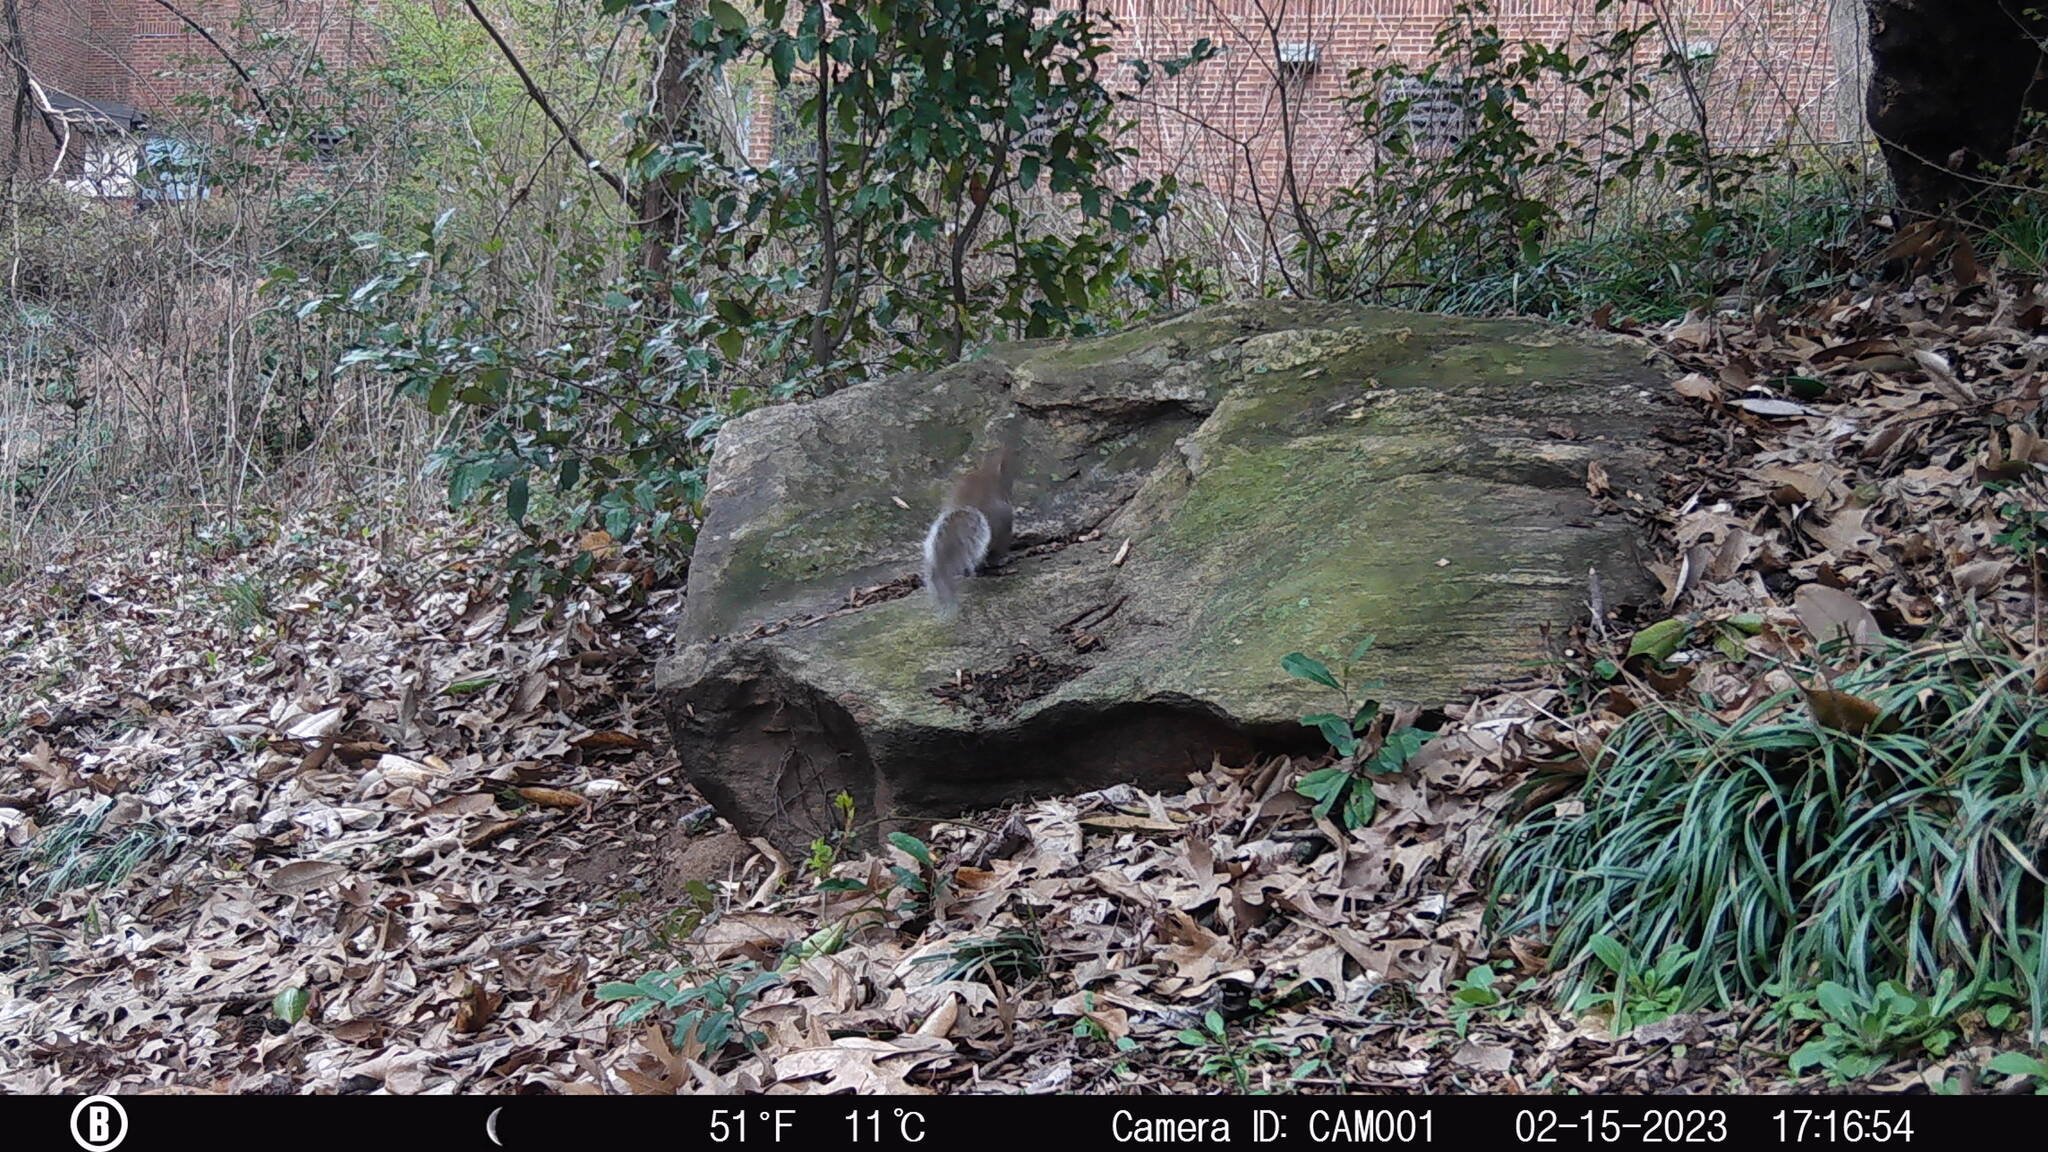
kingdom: Animalia
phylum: Chordata
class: Mammalia
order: Rodentia
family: Sciuridae
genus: Sciurus
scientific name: Sciurus carolinensis
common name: Eastern gray squirrel
